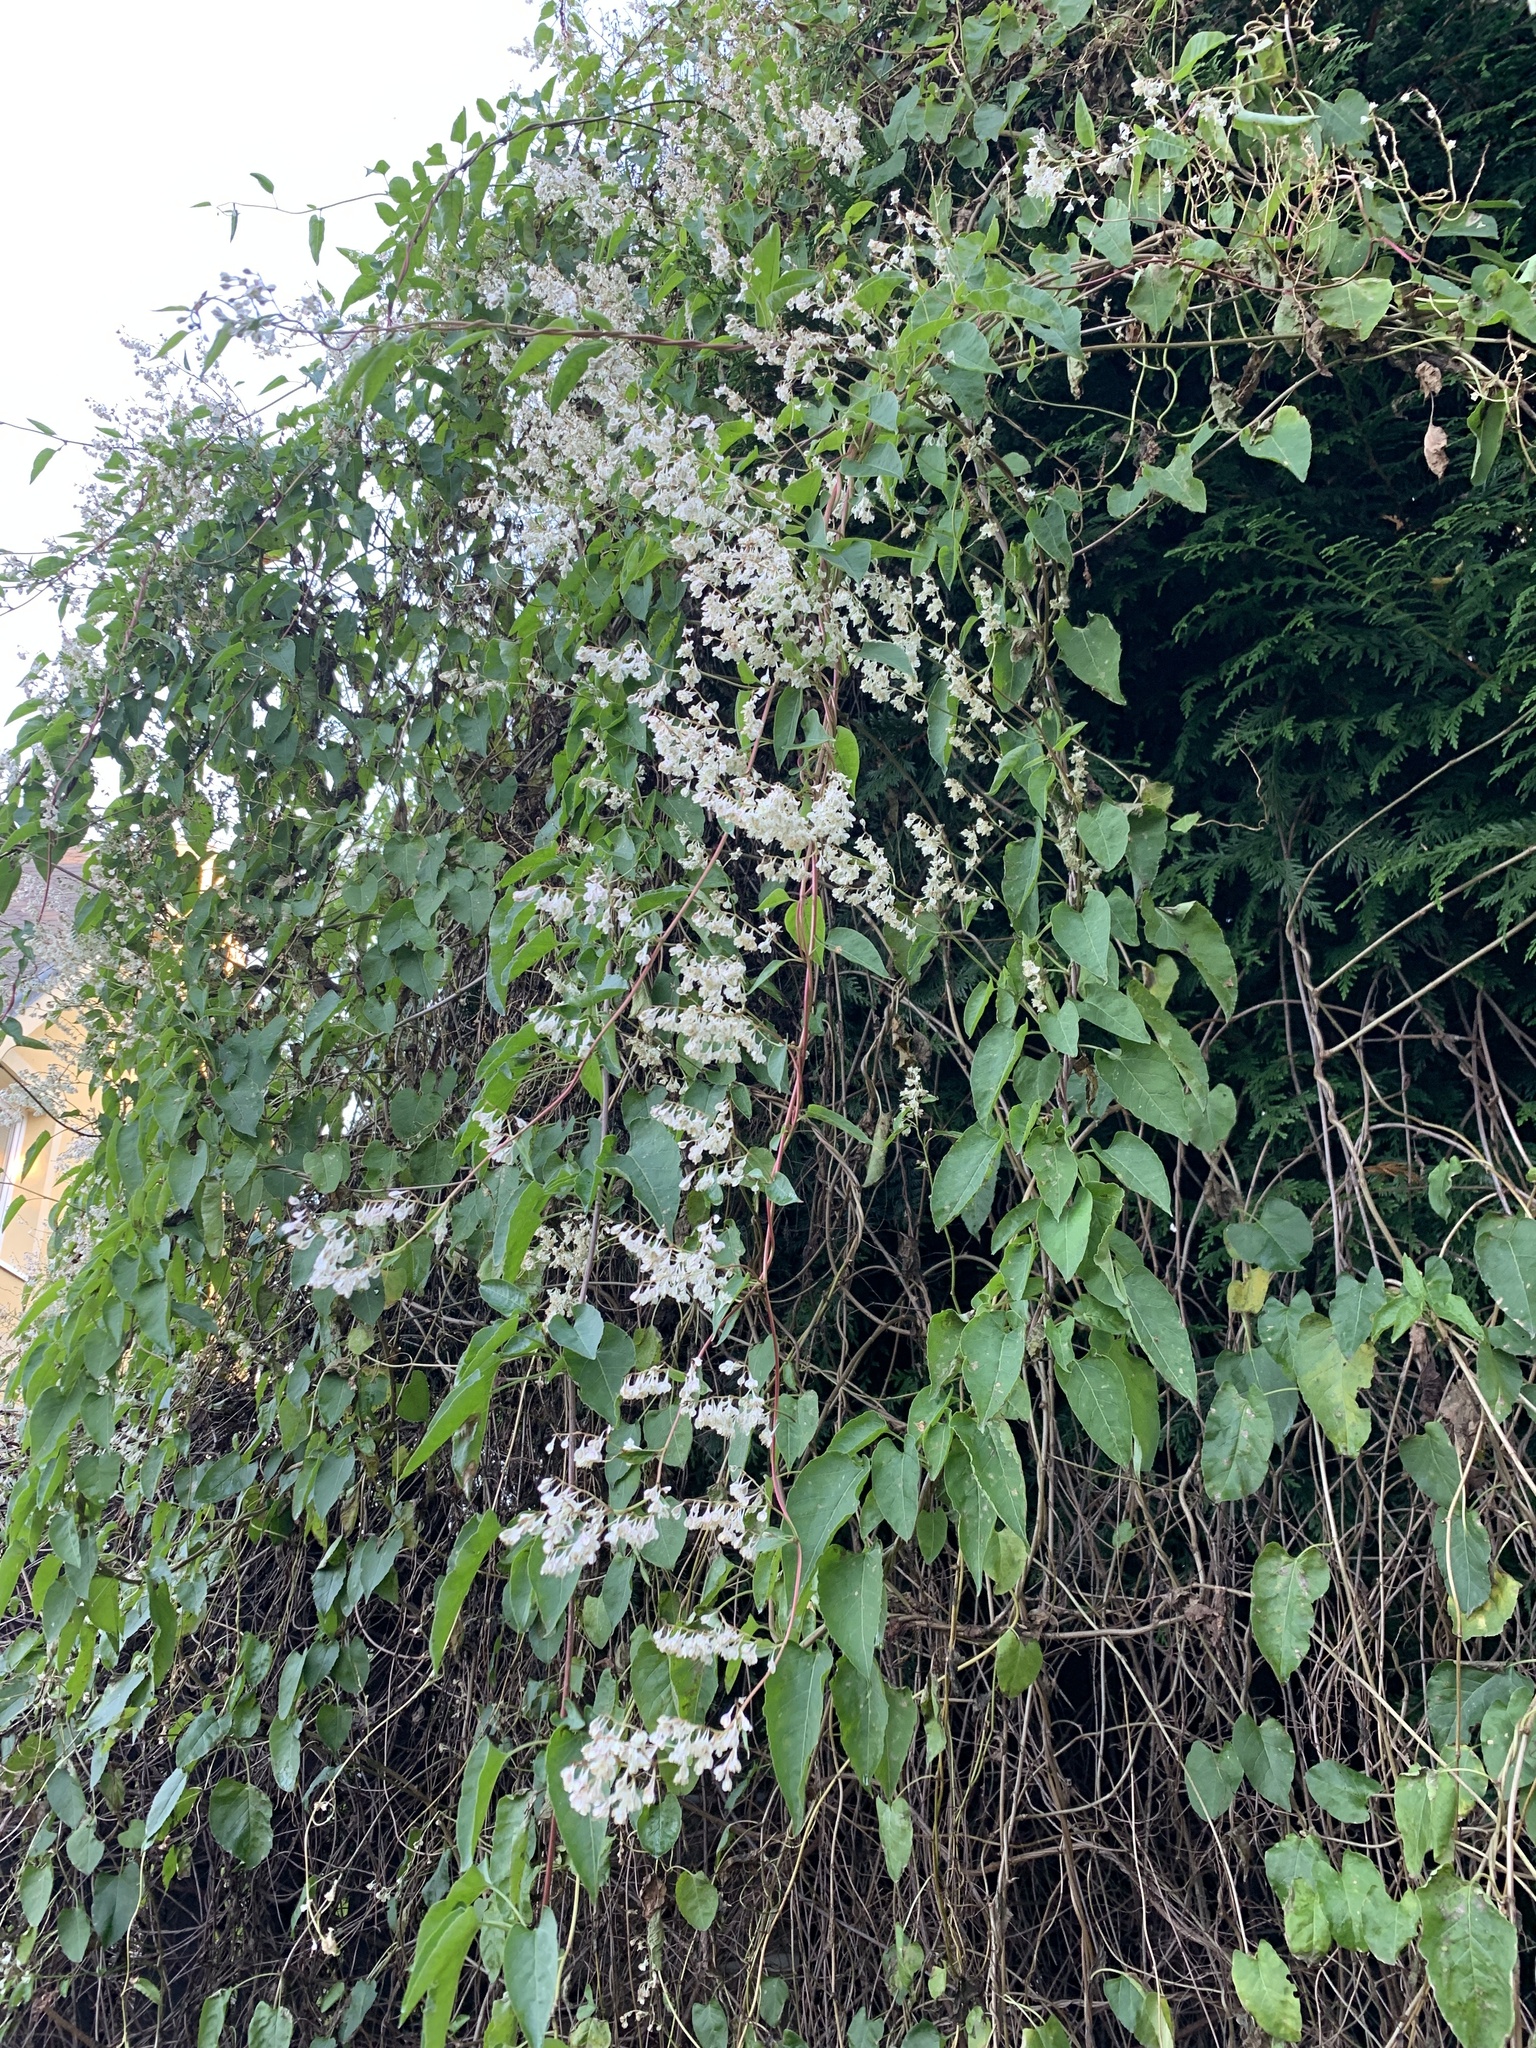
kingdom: Plantae
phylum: Tracheophyta
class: Magnoliopsida
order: Caryophyllales
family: Polygonaceae
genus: Fallopia
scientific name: Fallopia baldschuanica
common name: Russian-vine
